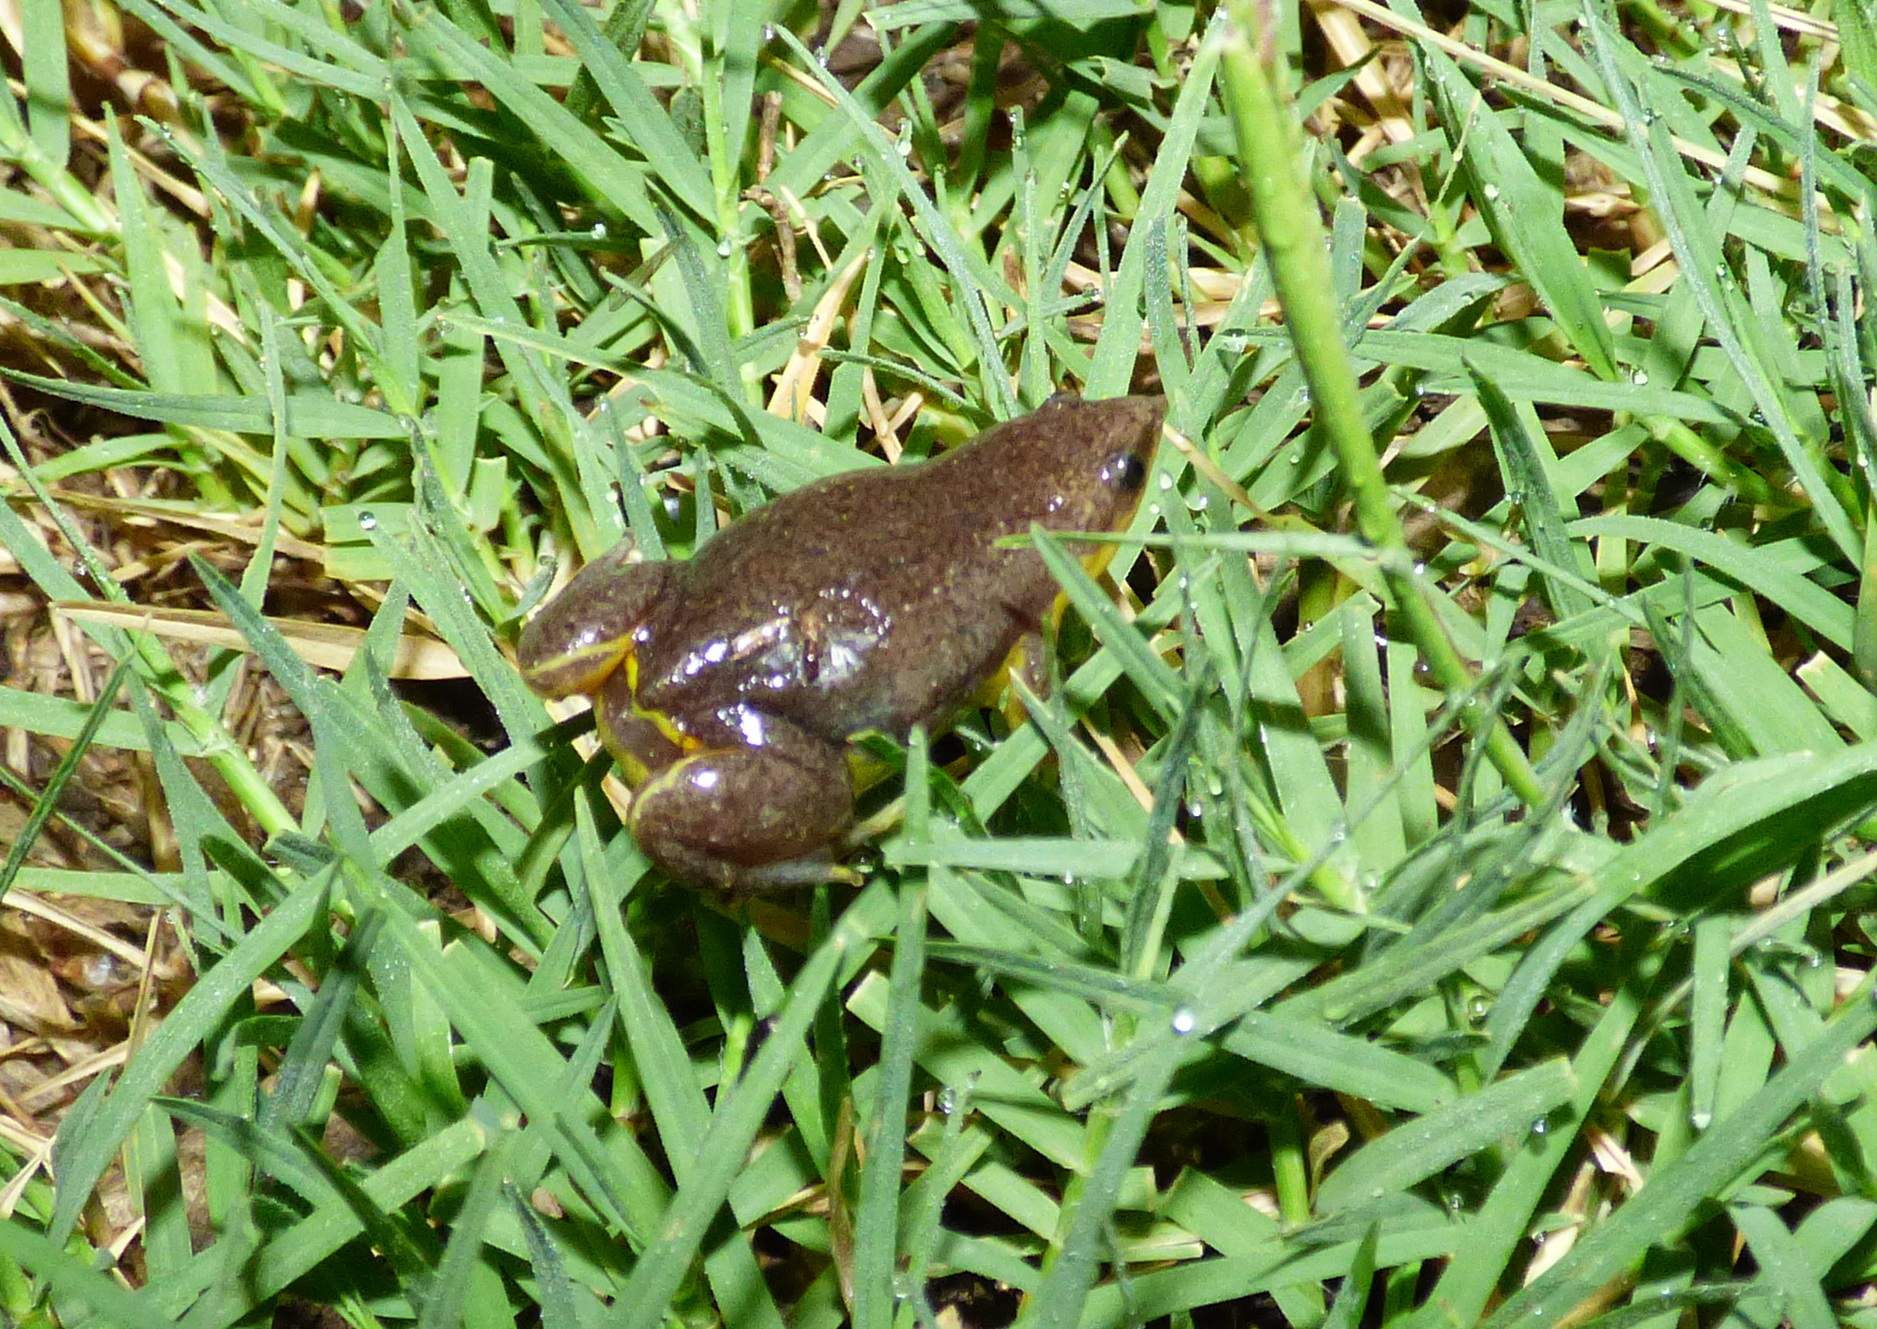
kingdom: Animalia
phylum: Chordata
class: Amphibia
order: Anura
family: Microhylidae
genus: Elachistocleis
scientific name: Elachistocleis bicolor
